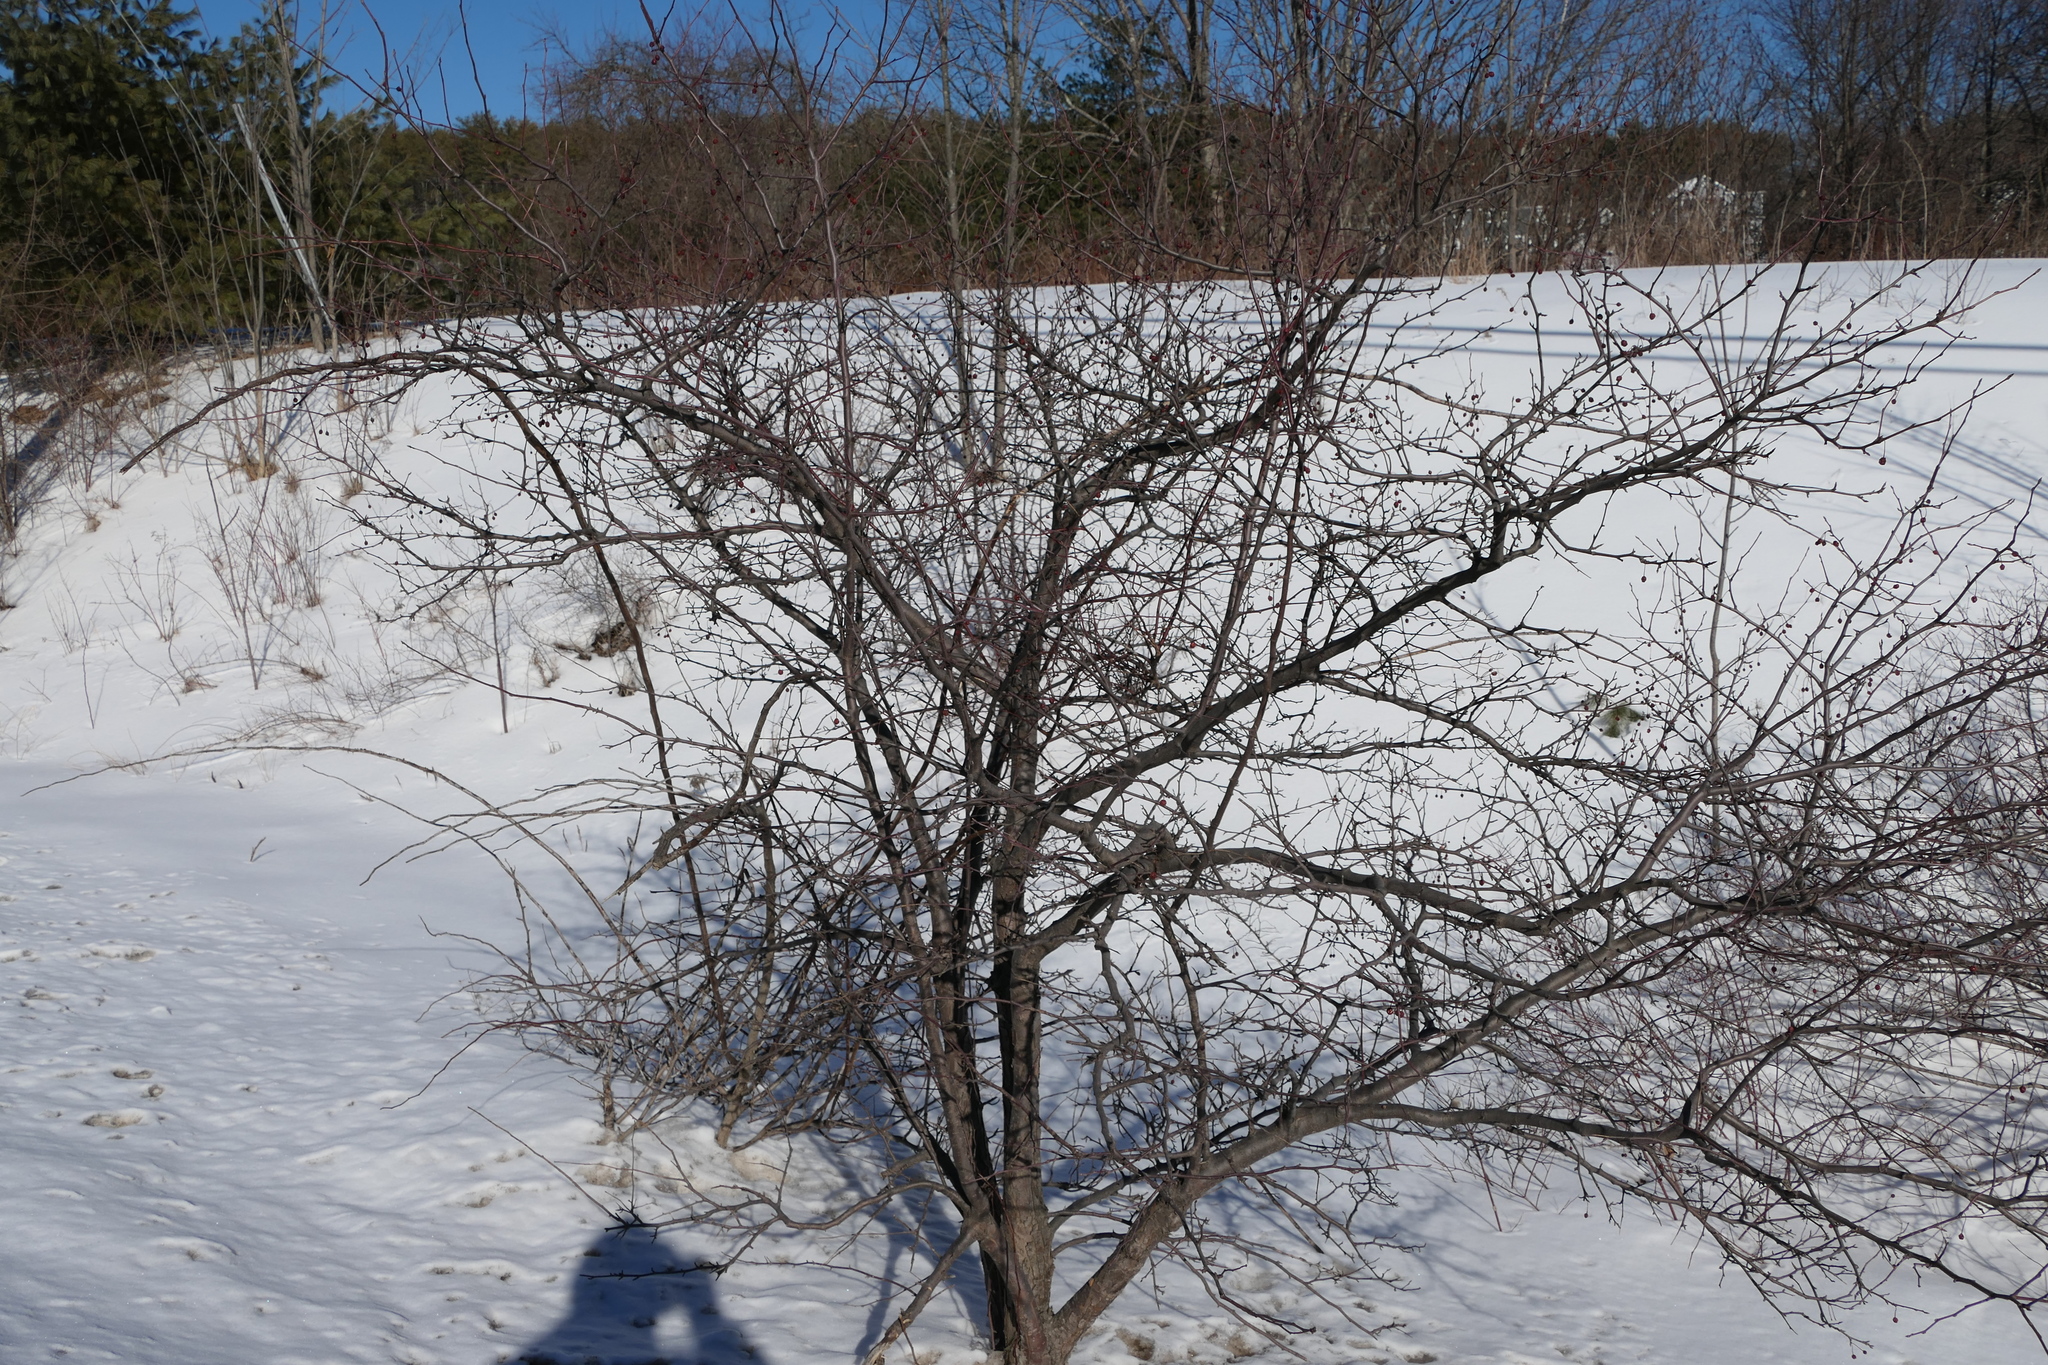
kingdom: Plantae
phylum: Tracheophyta
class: Magnoliopsida
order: Rosales
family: Rosaceae
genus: Malus
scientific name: Malus baccata
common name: Siberian crab
